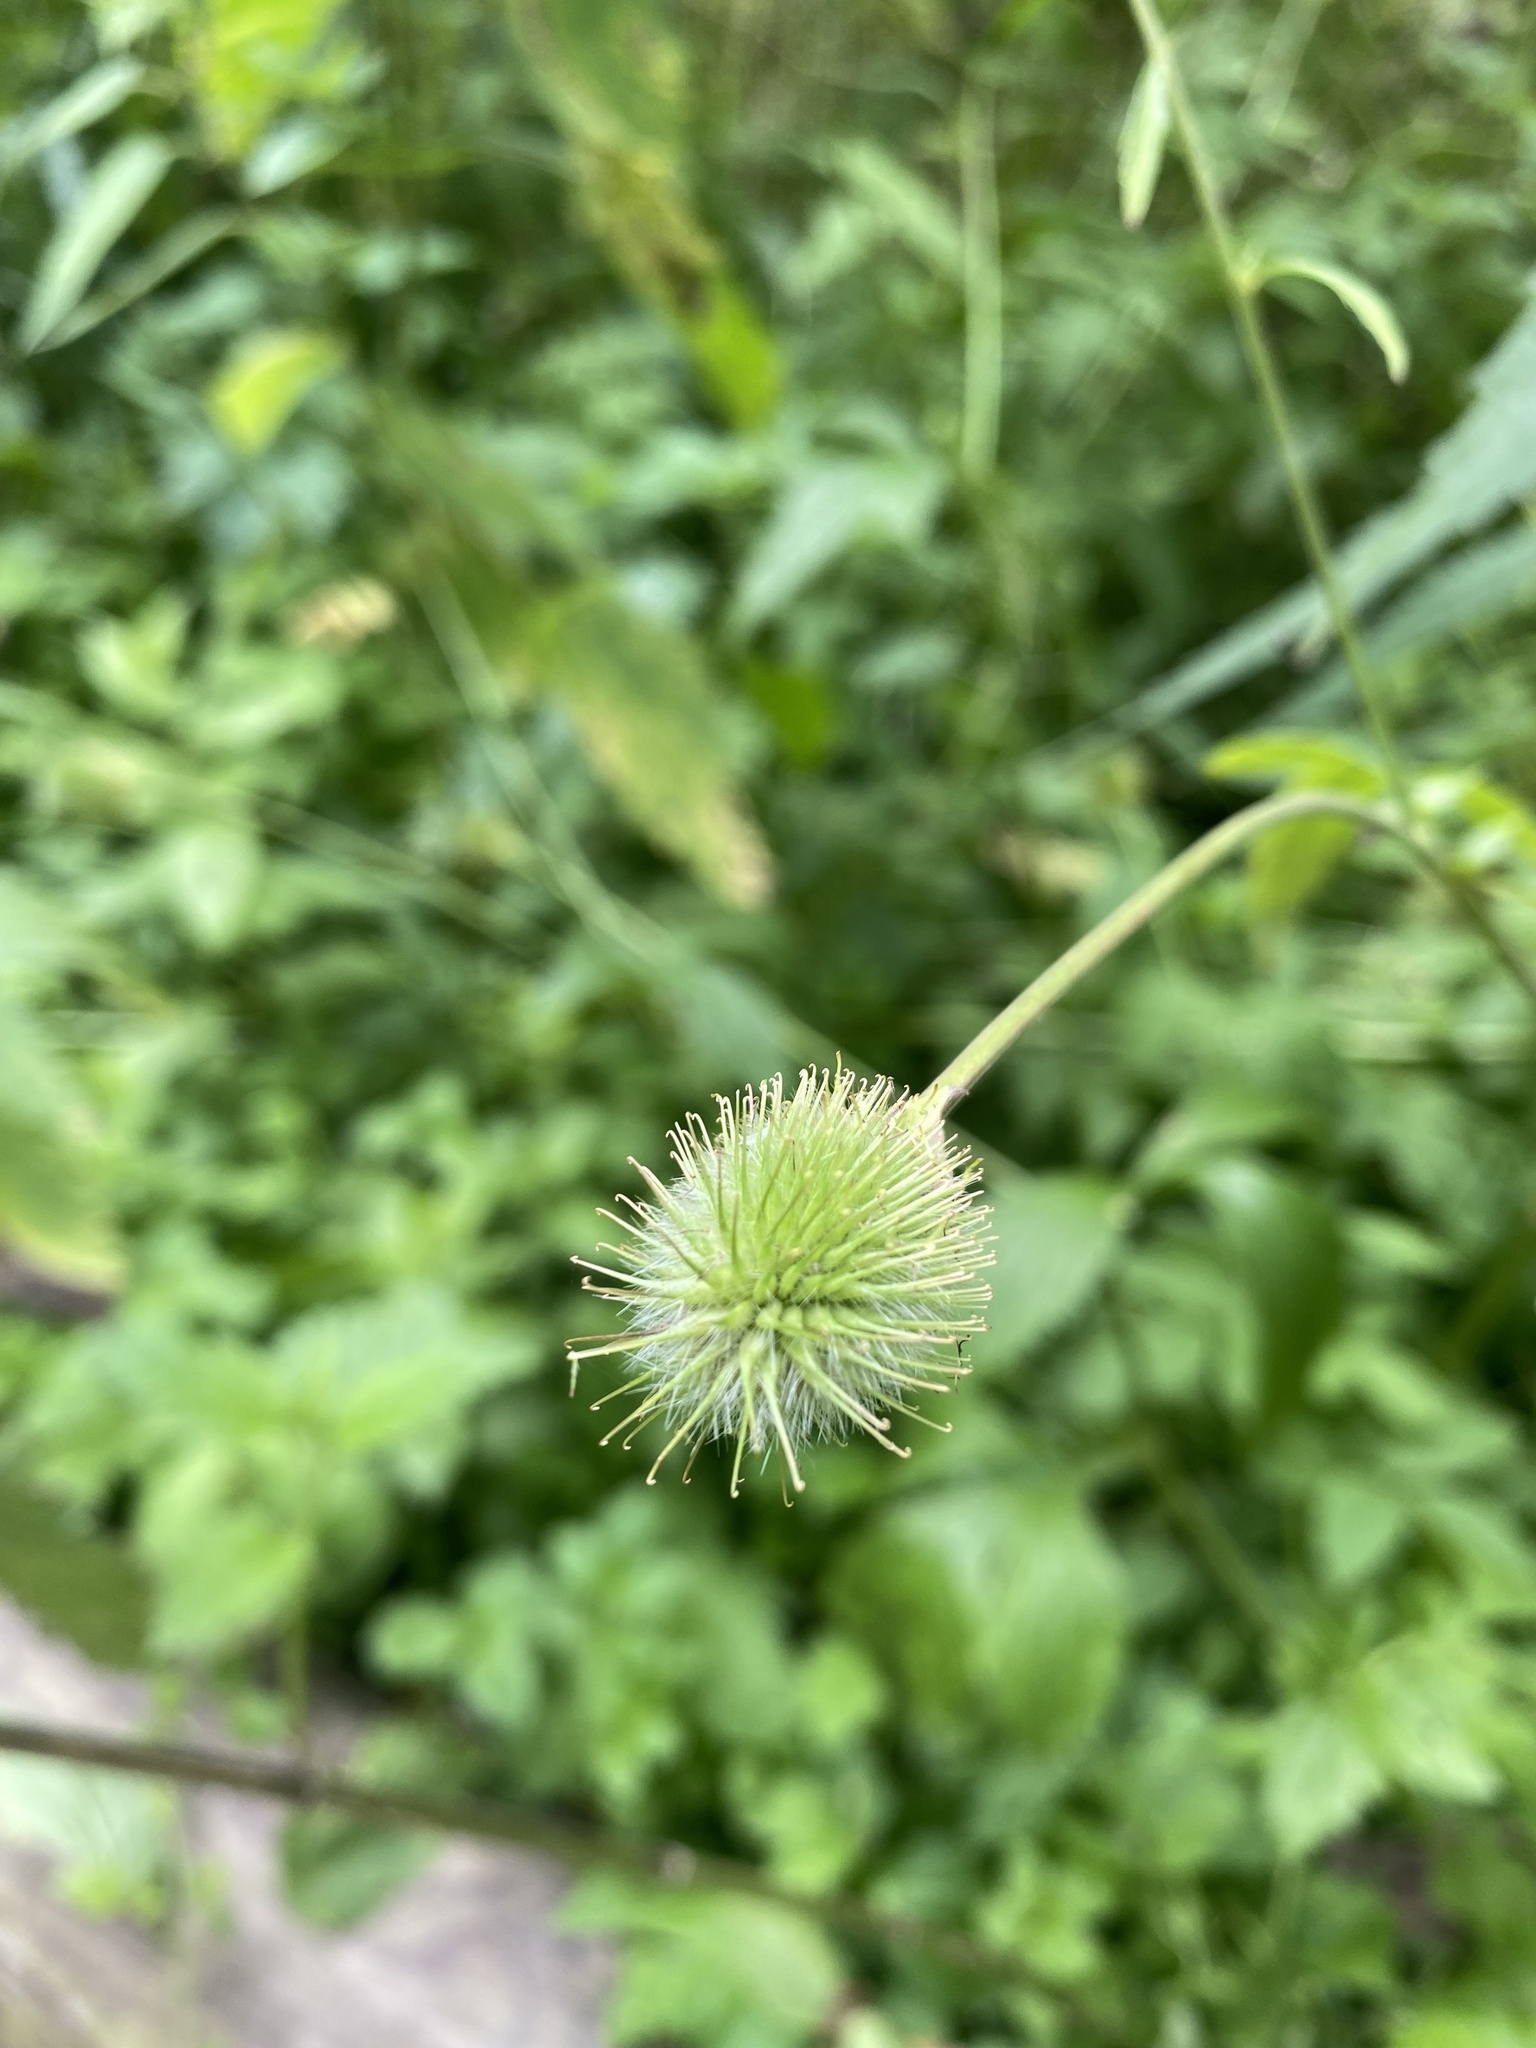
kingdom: Plantae
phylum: Tracheophyta
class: Magnoliopsida
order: Rosales
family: Rosaceae
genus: Geum
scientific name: Geum aleppicum
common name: Yellow avens
